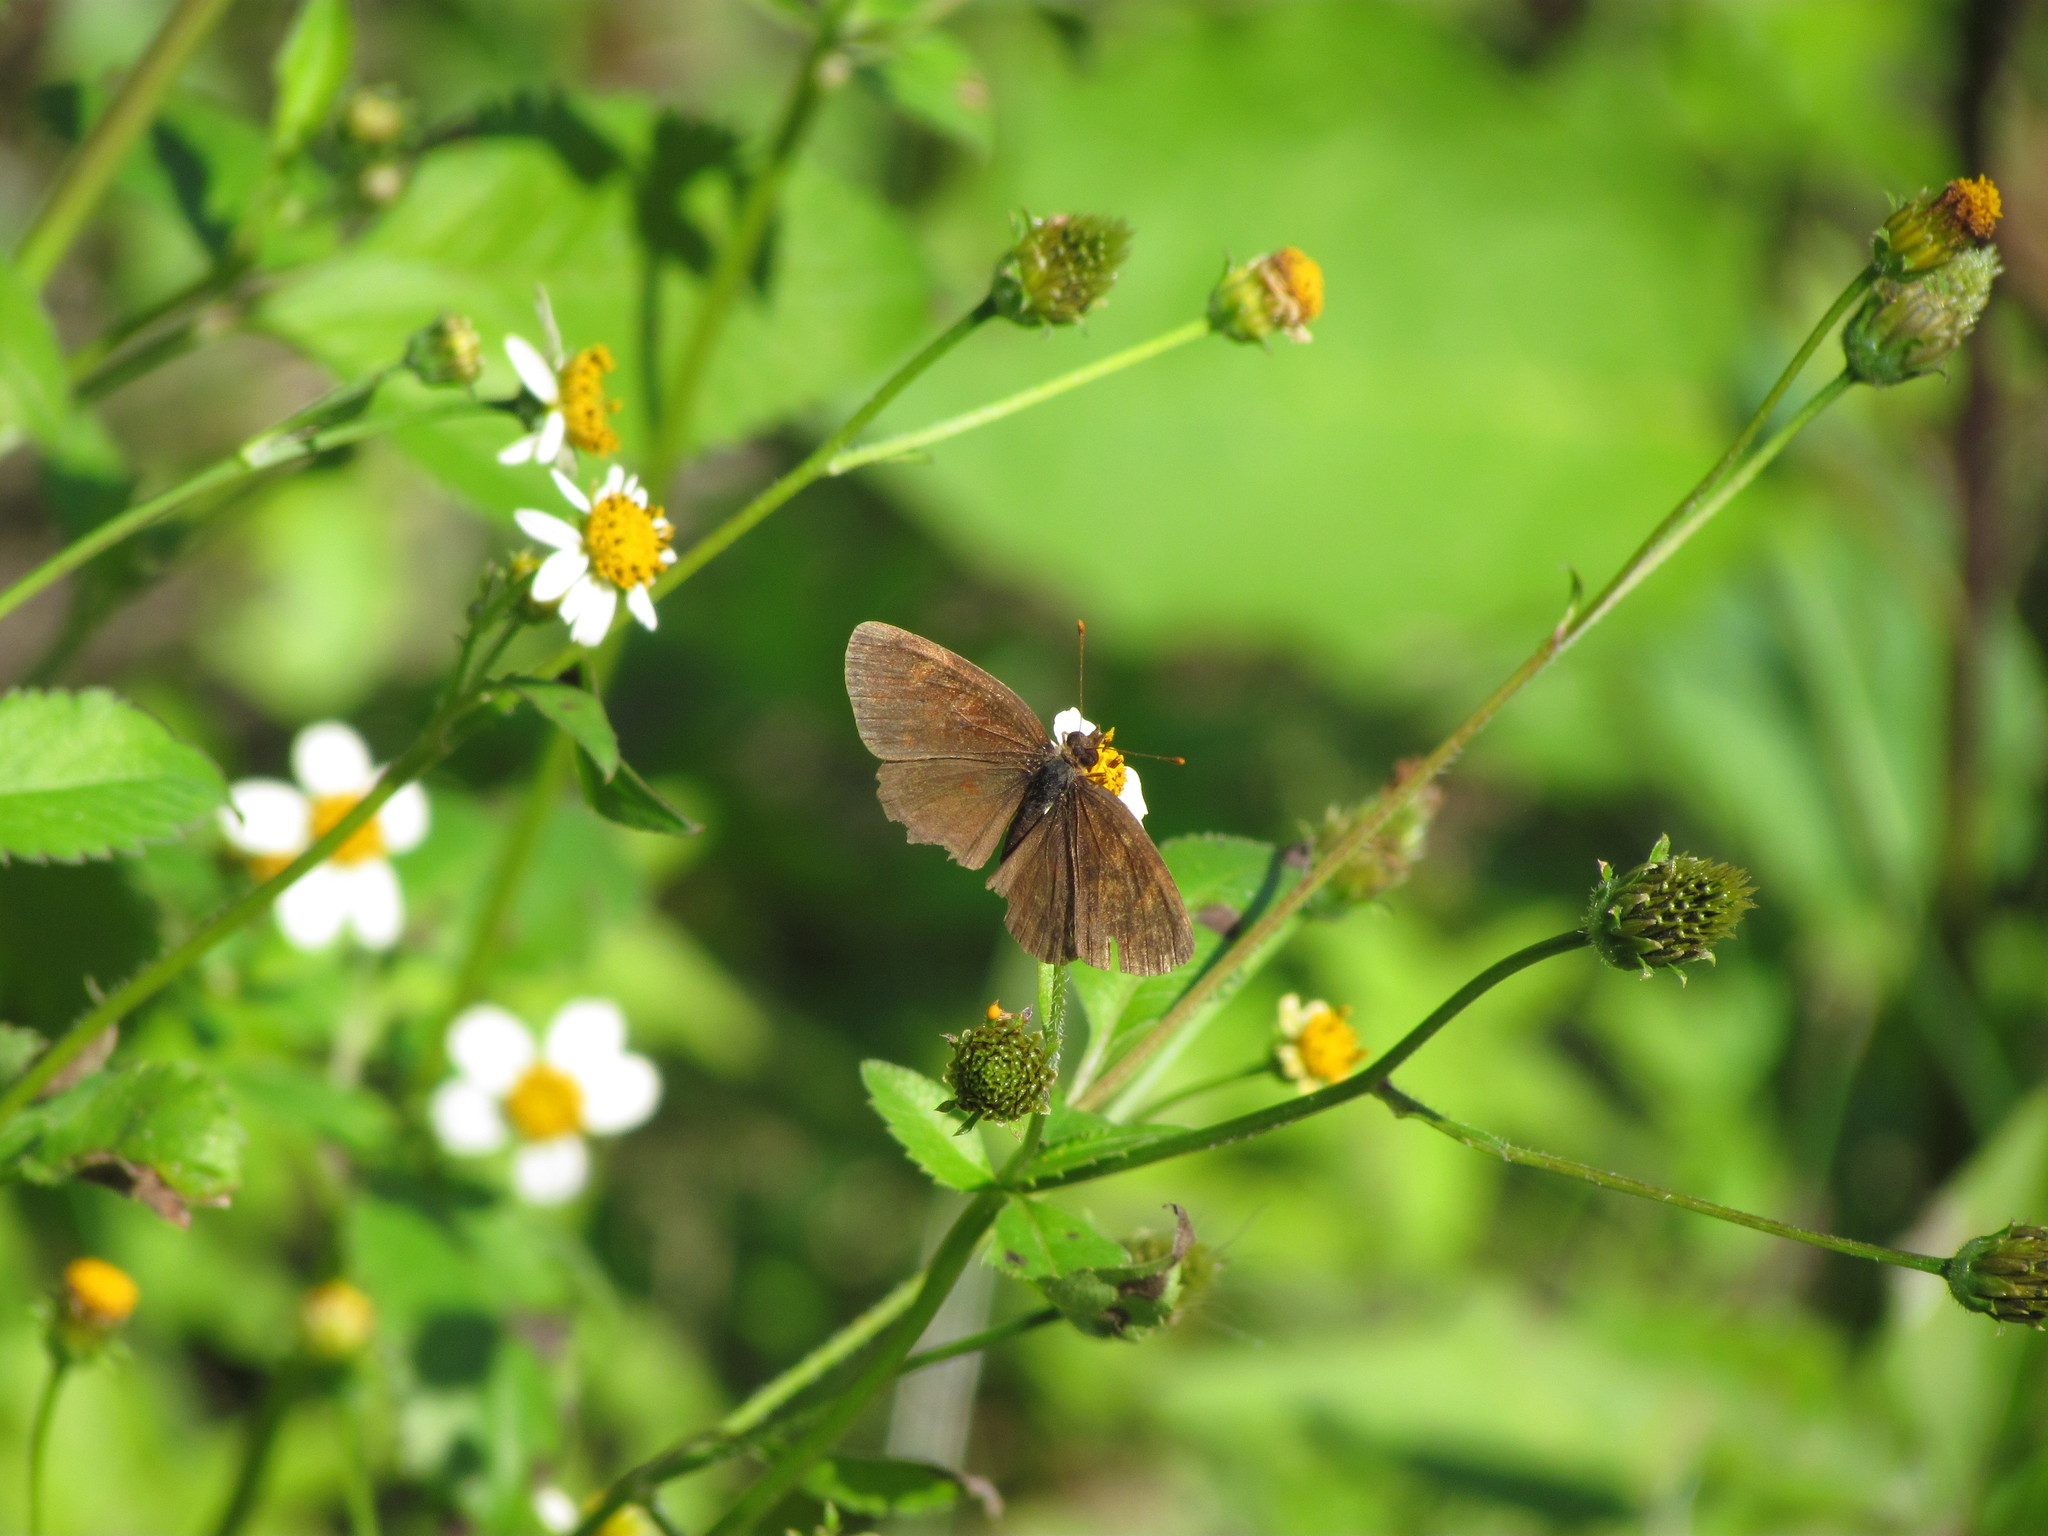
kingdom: Animalia
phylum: Arthropoda
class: Insecta
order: Lepidoptera
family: Nymphalidae
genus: Ortilia
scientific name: Ortilia velica
